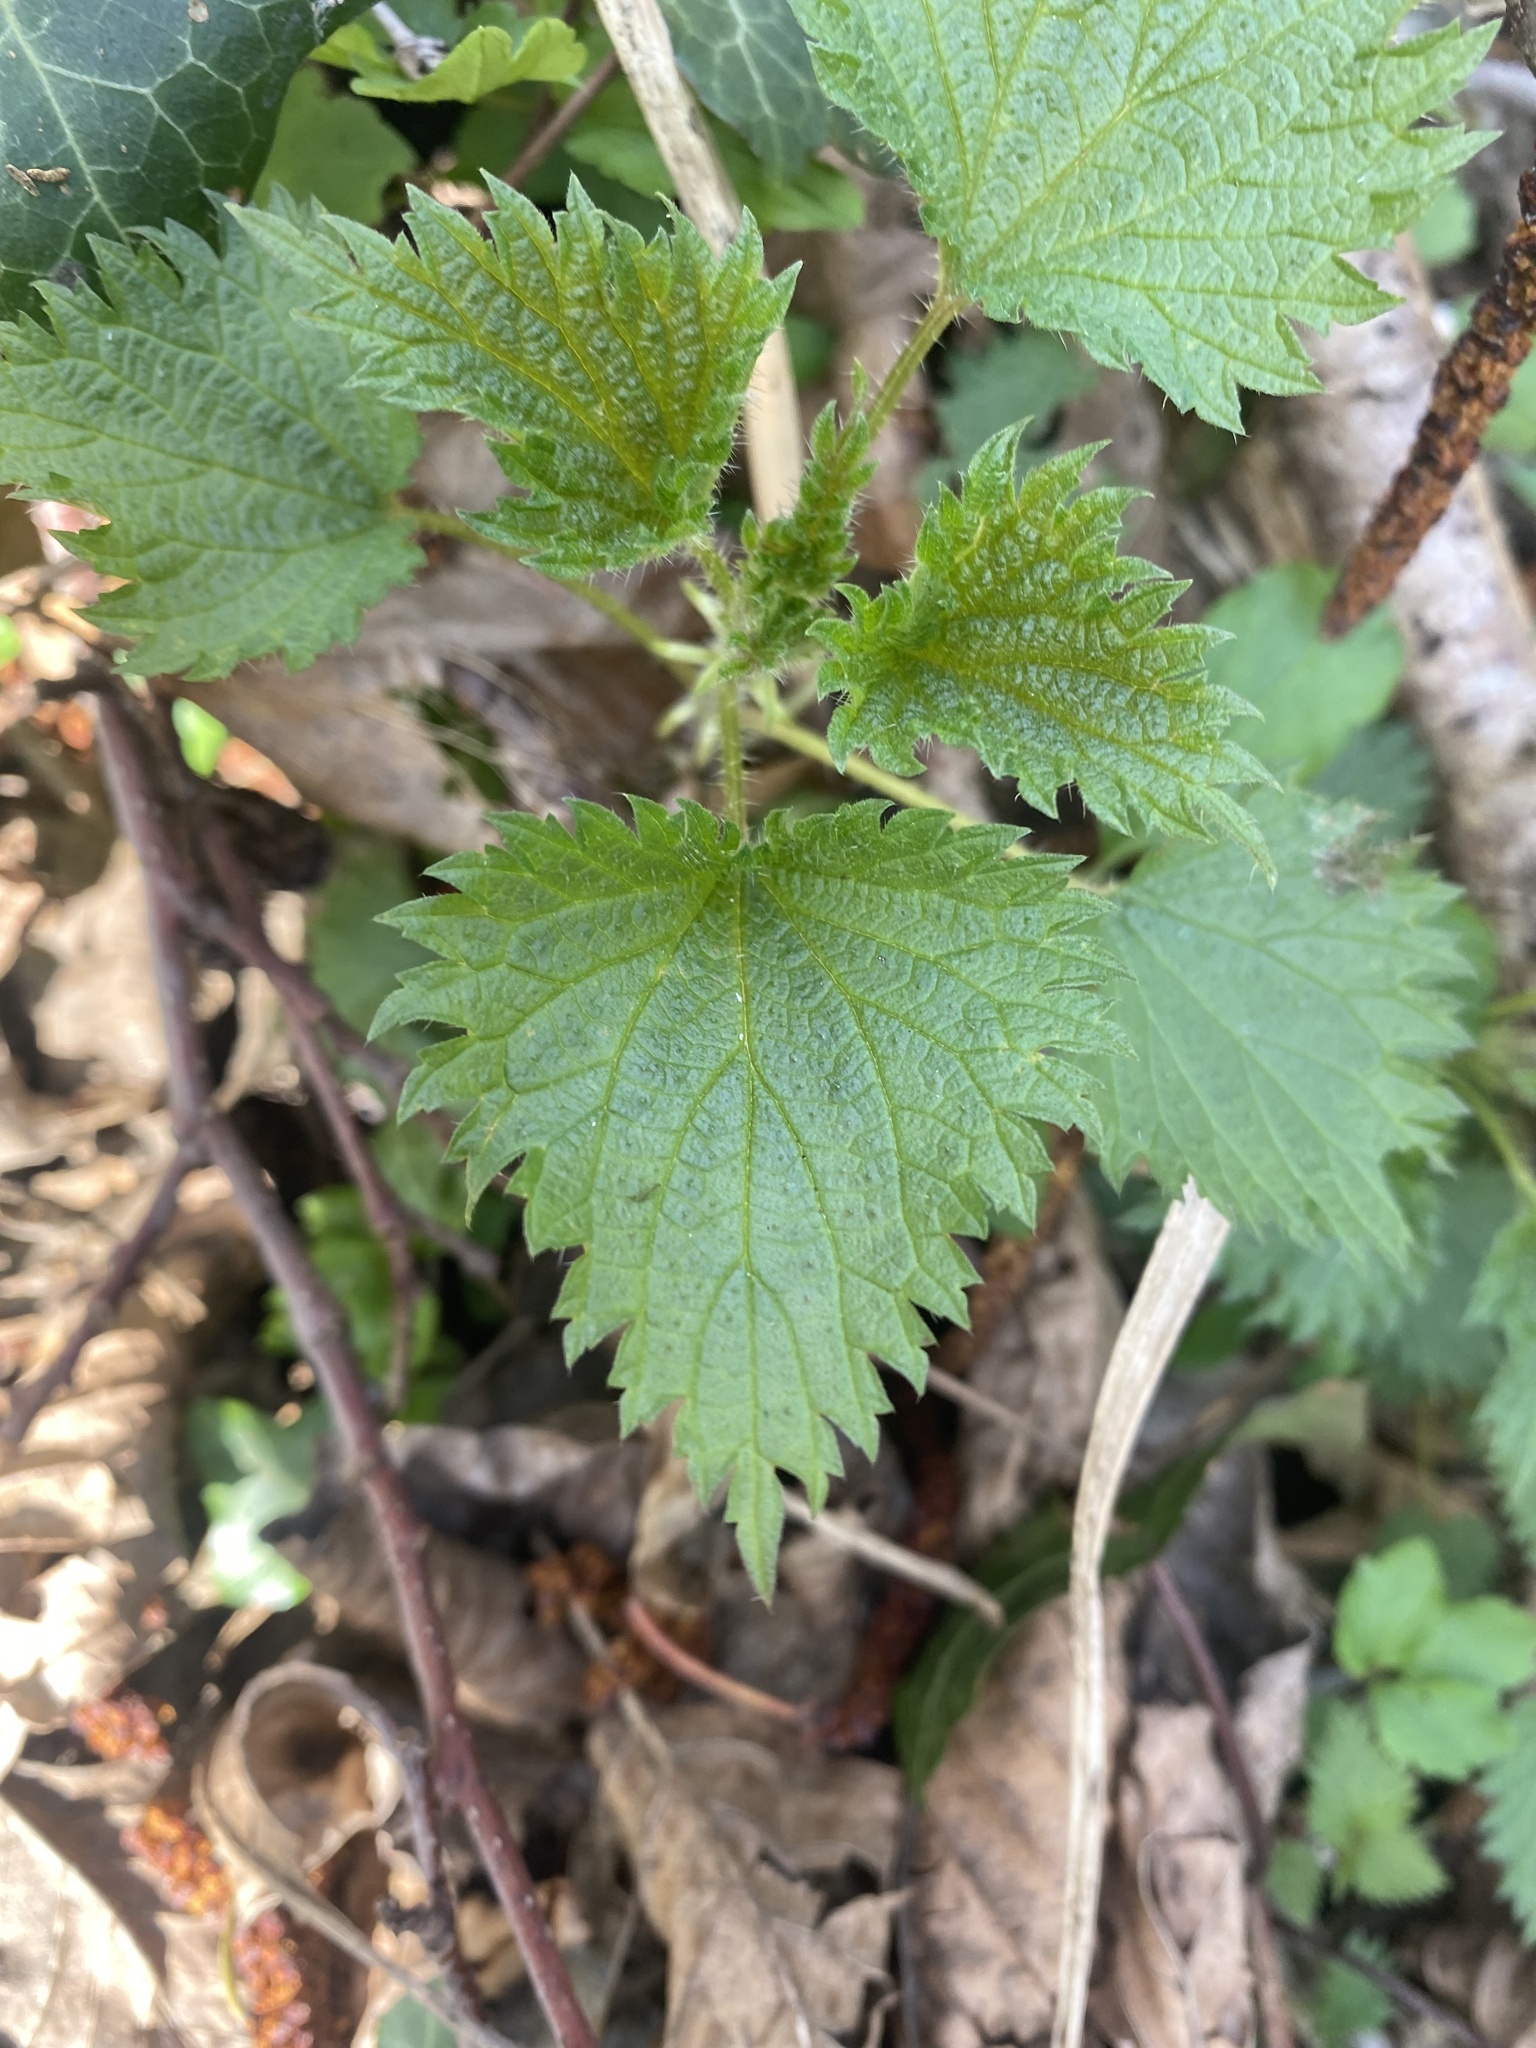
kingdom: Plantae
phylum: Tracheophyta
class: Magnoliopsida
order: Rosales
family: Urticaceae
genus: Urtica
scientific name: Urtica dioica
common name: Common nettle
